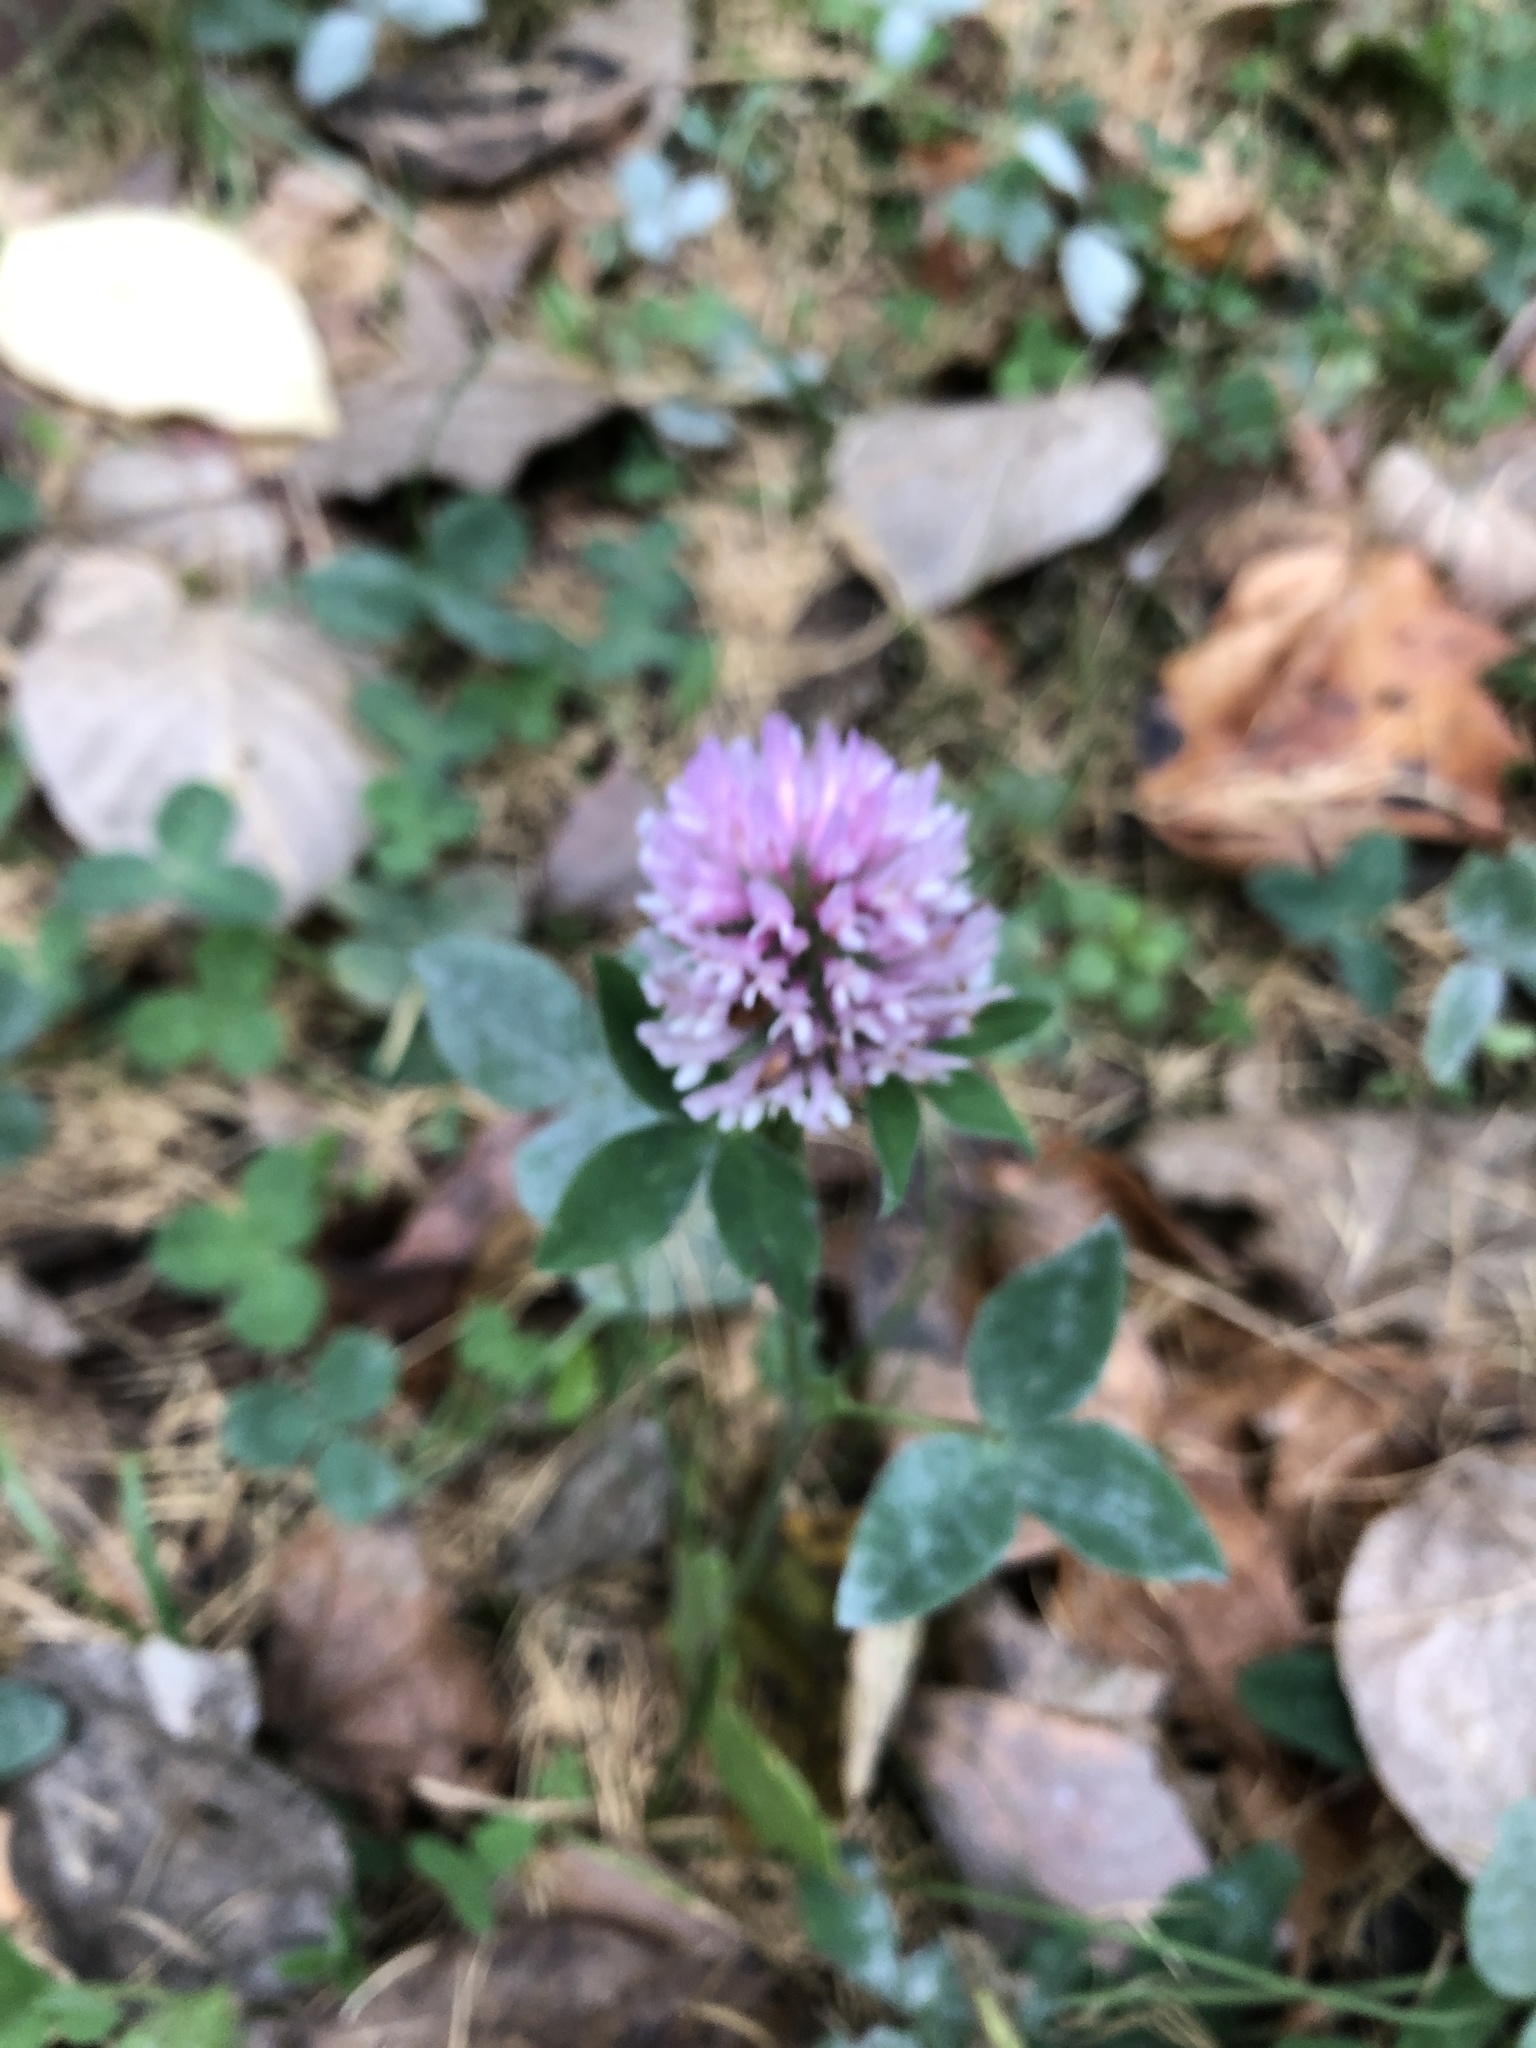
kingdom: Plantae
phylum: Tracheophyta
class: Magnoliopsida
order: Fabales
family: Fabaceae
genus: Trifolium
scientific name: Trifolium pratense
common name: Red clover
